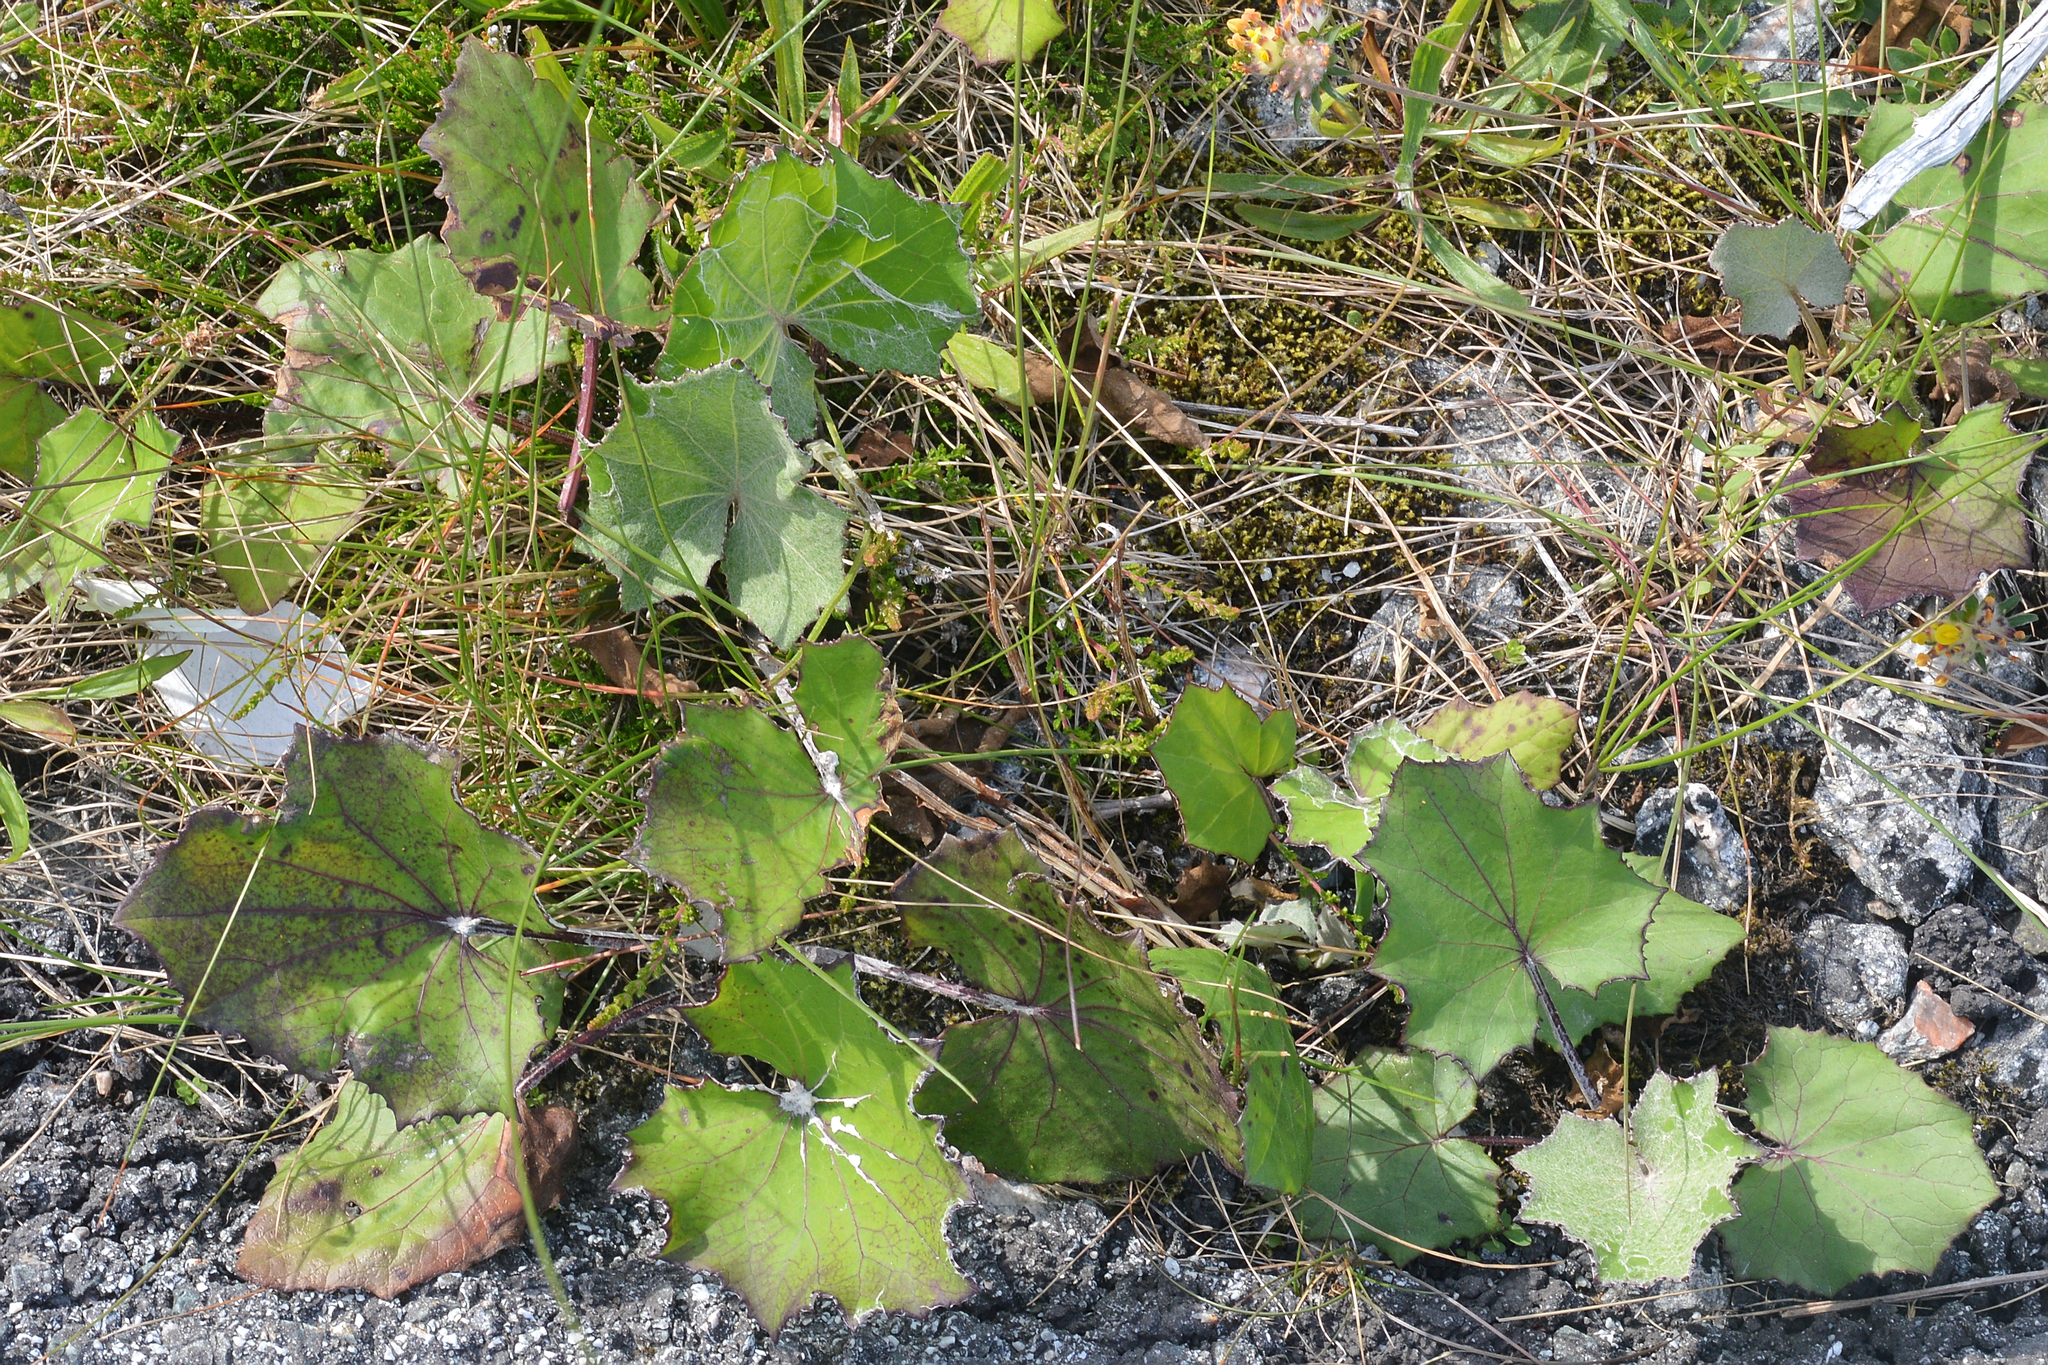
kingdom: Plantae
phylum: Tracheophyta
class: Magnoliopsida
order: Asterales
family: Asteraceae
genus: Tussilago
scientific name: Tussilago farfara
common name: Coltsfoot
